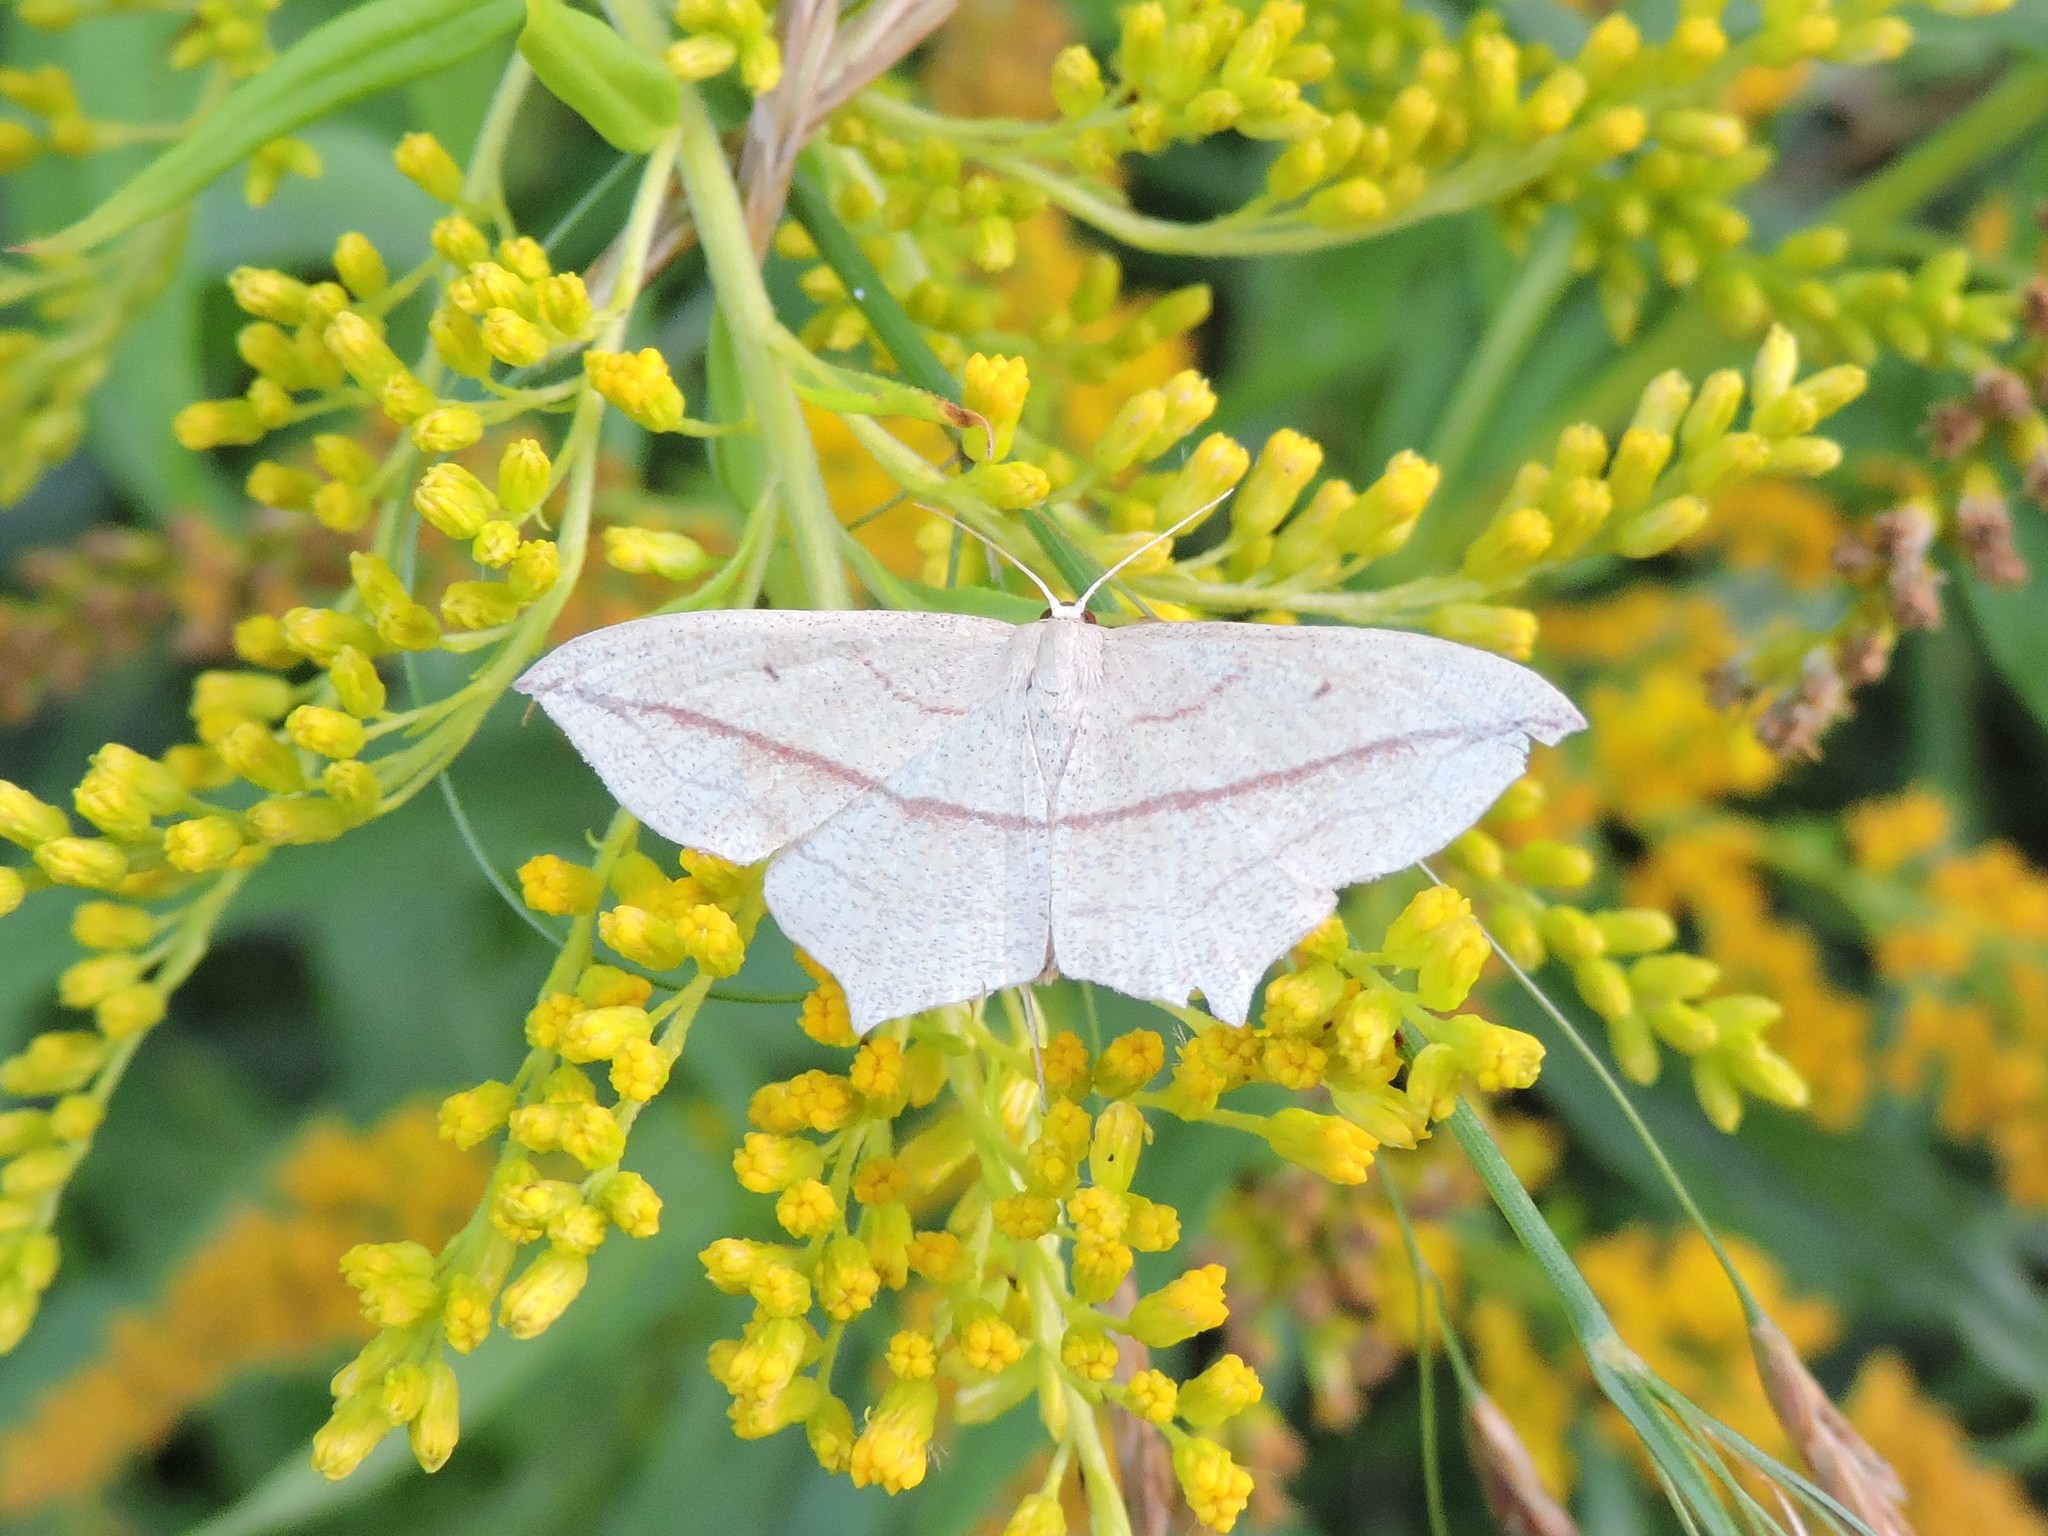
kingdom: Animalia
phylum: Arthropoda
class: Insecta
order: Lepidoptera
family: Geometridae
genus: Timandra
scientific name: Timandra comae
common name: Blood-vein
